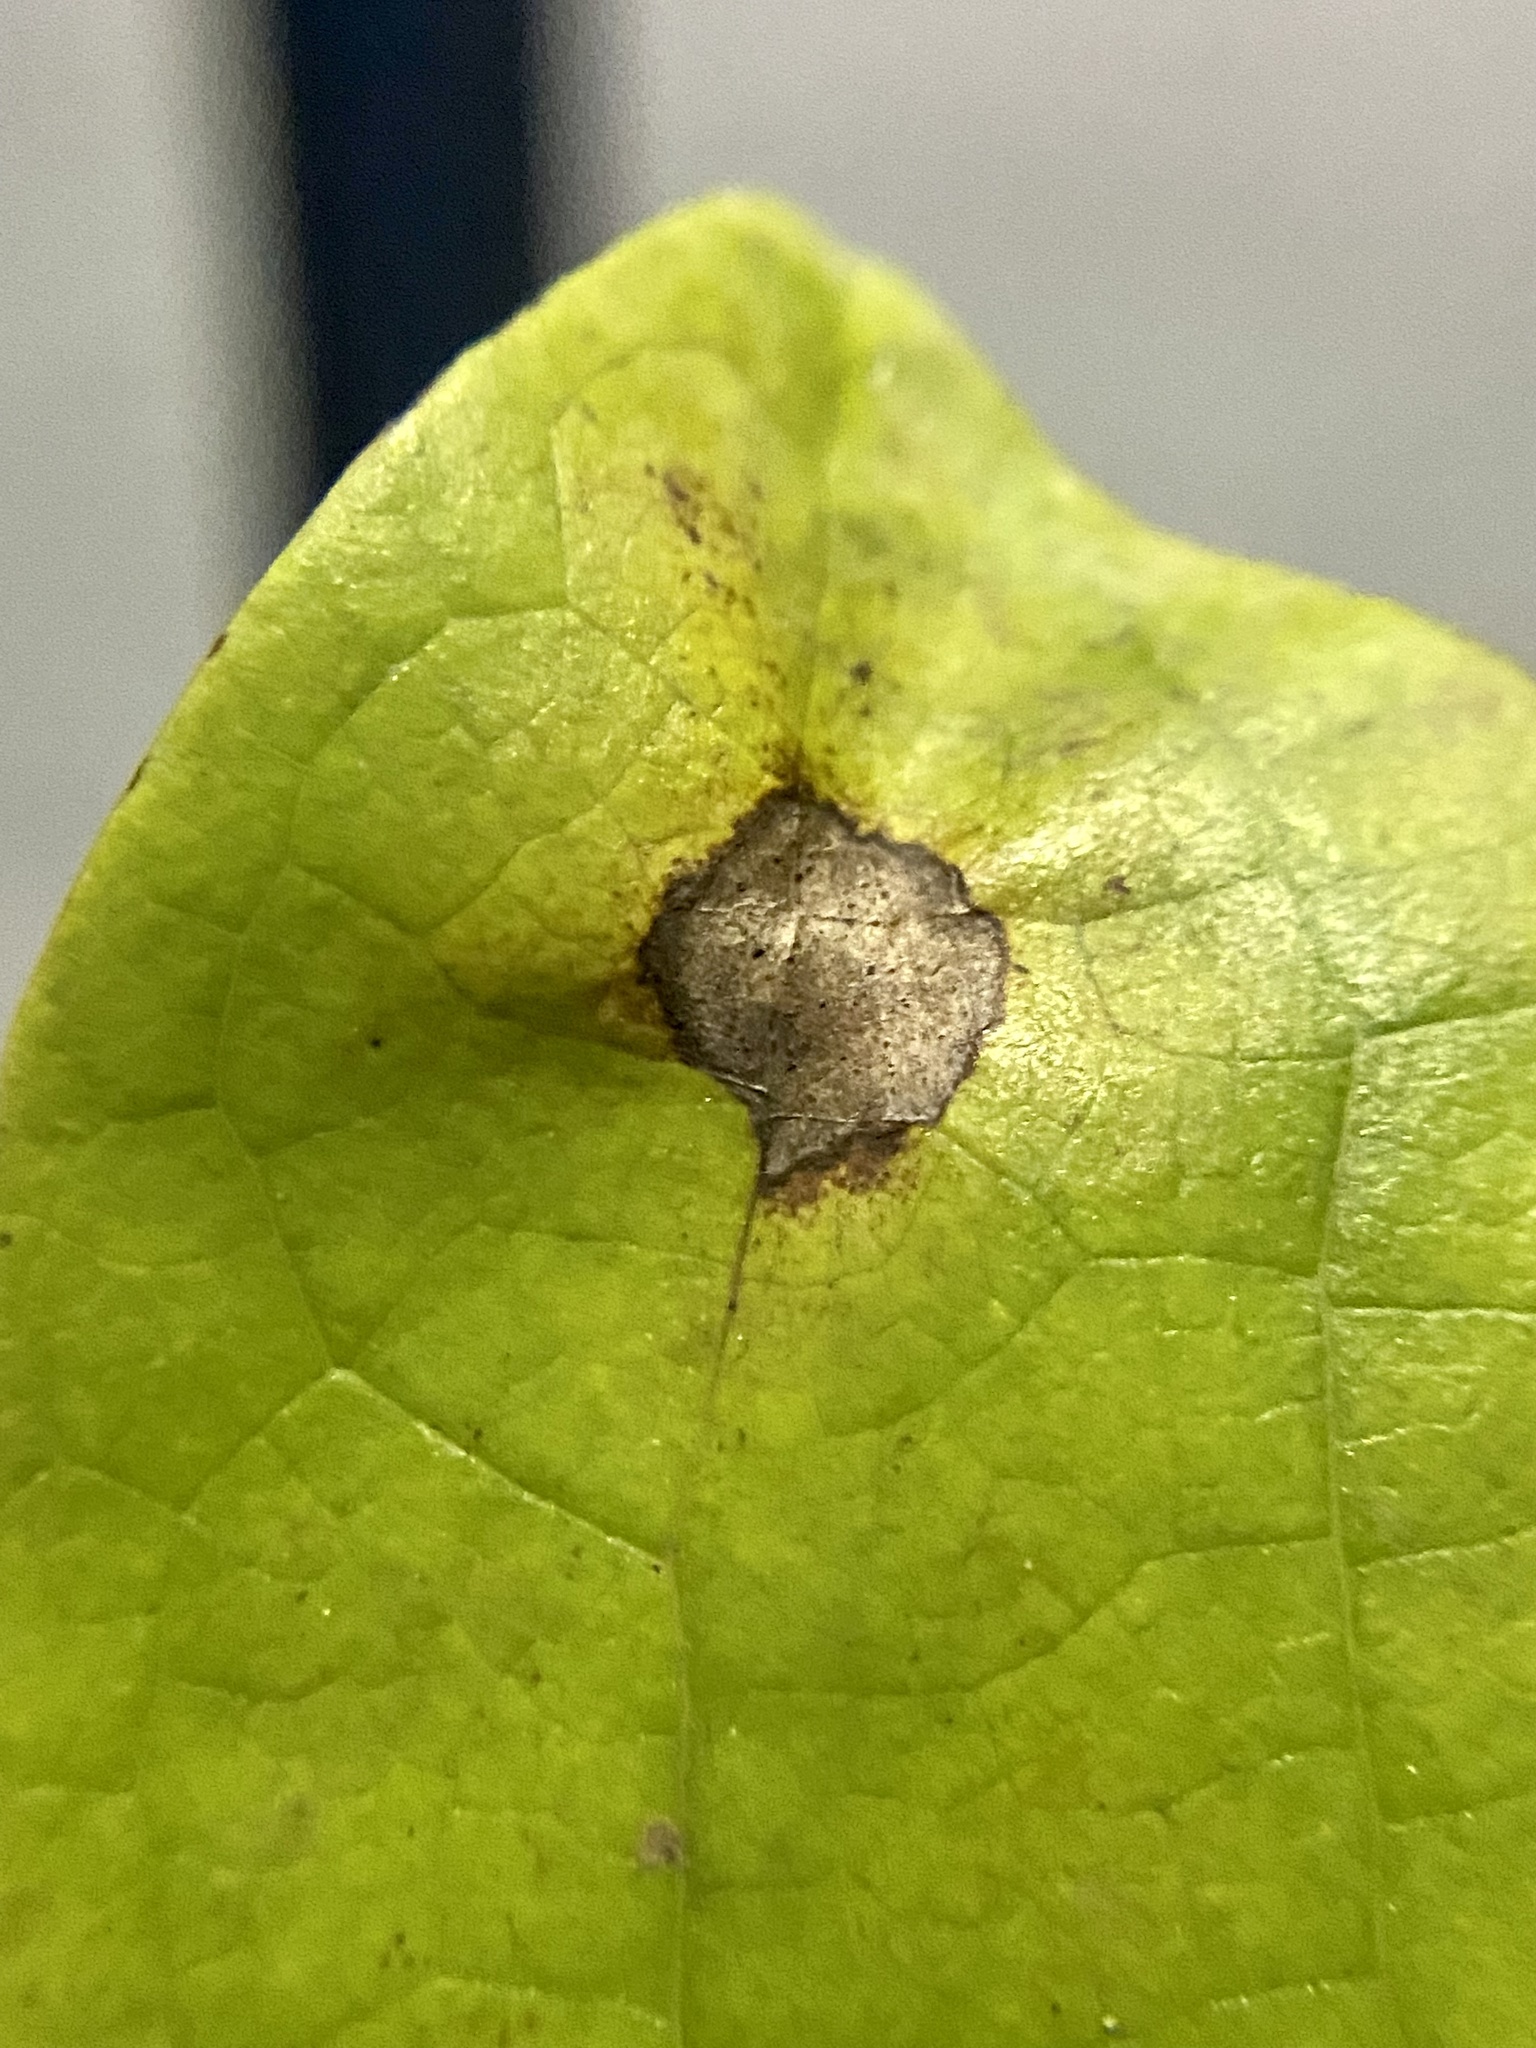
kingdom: Animalia
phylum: Arthropoda
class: Insecta
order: Diptera
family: Cecidomyiidae
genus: Resseliella
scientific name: Resseliella liriodendri
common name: Tulip tree leaf spot gall midge
